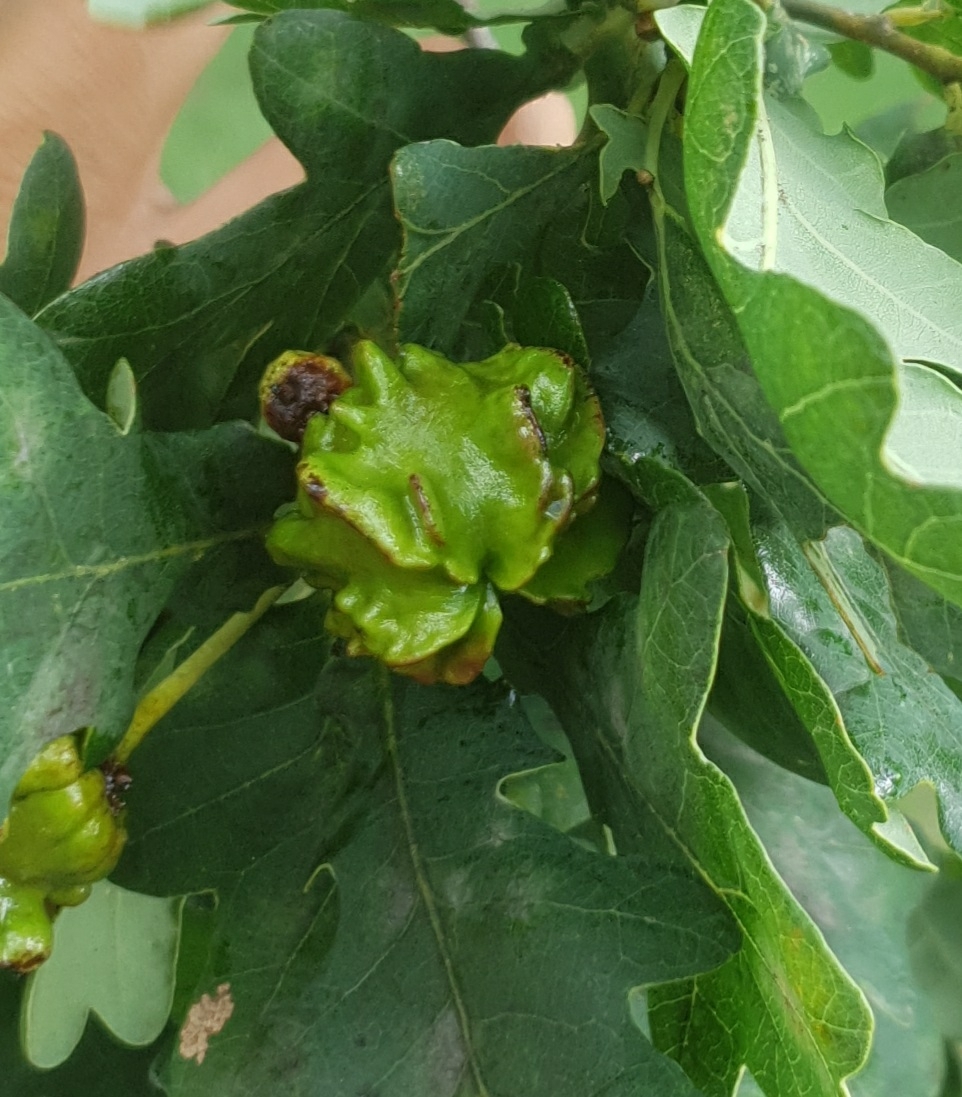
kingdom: Animalia
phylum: Arthropoda
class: Insecta
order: Hymenoptera
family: Cynipidae
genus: Andricus
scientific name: Andricus quercuscalicis
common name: Knopper gall
